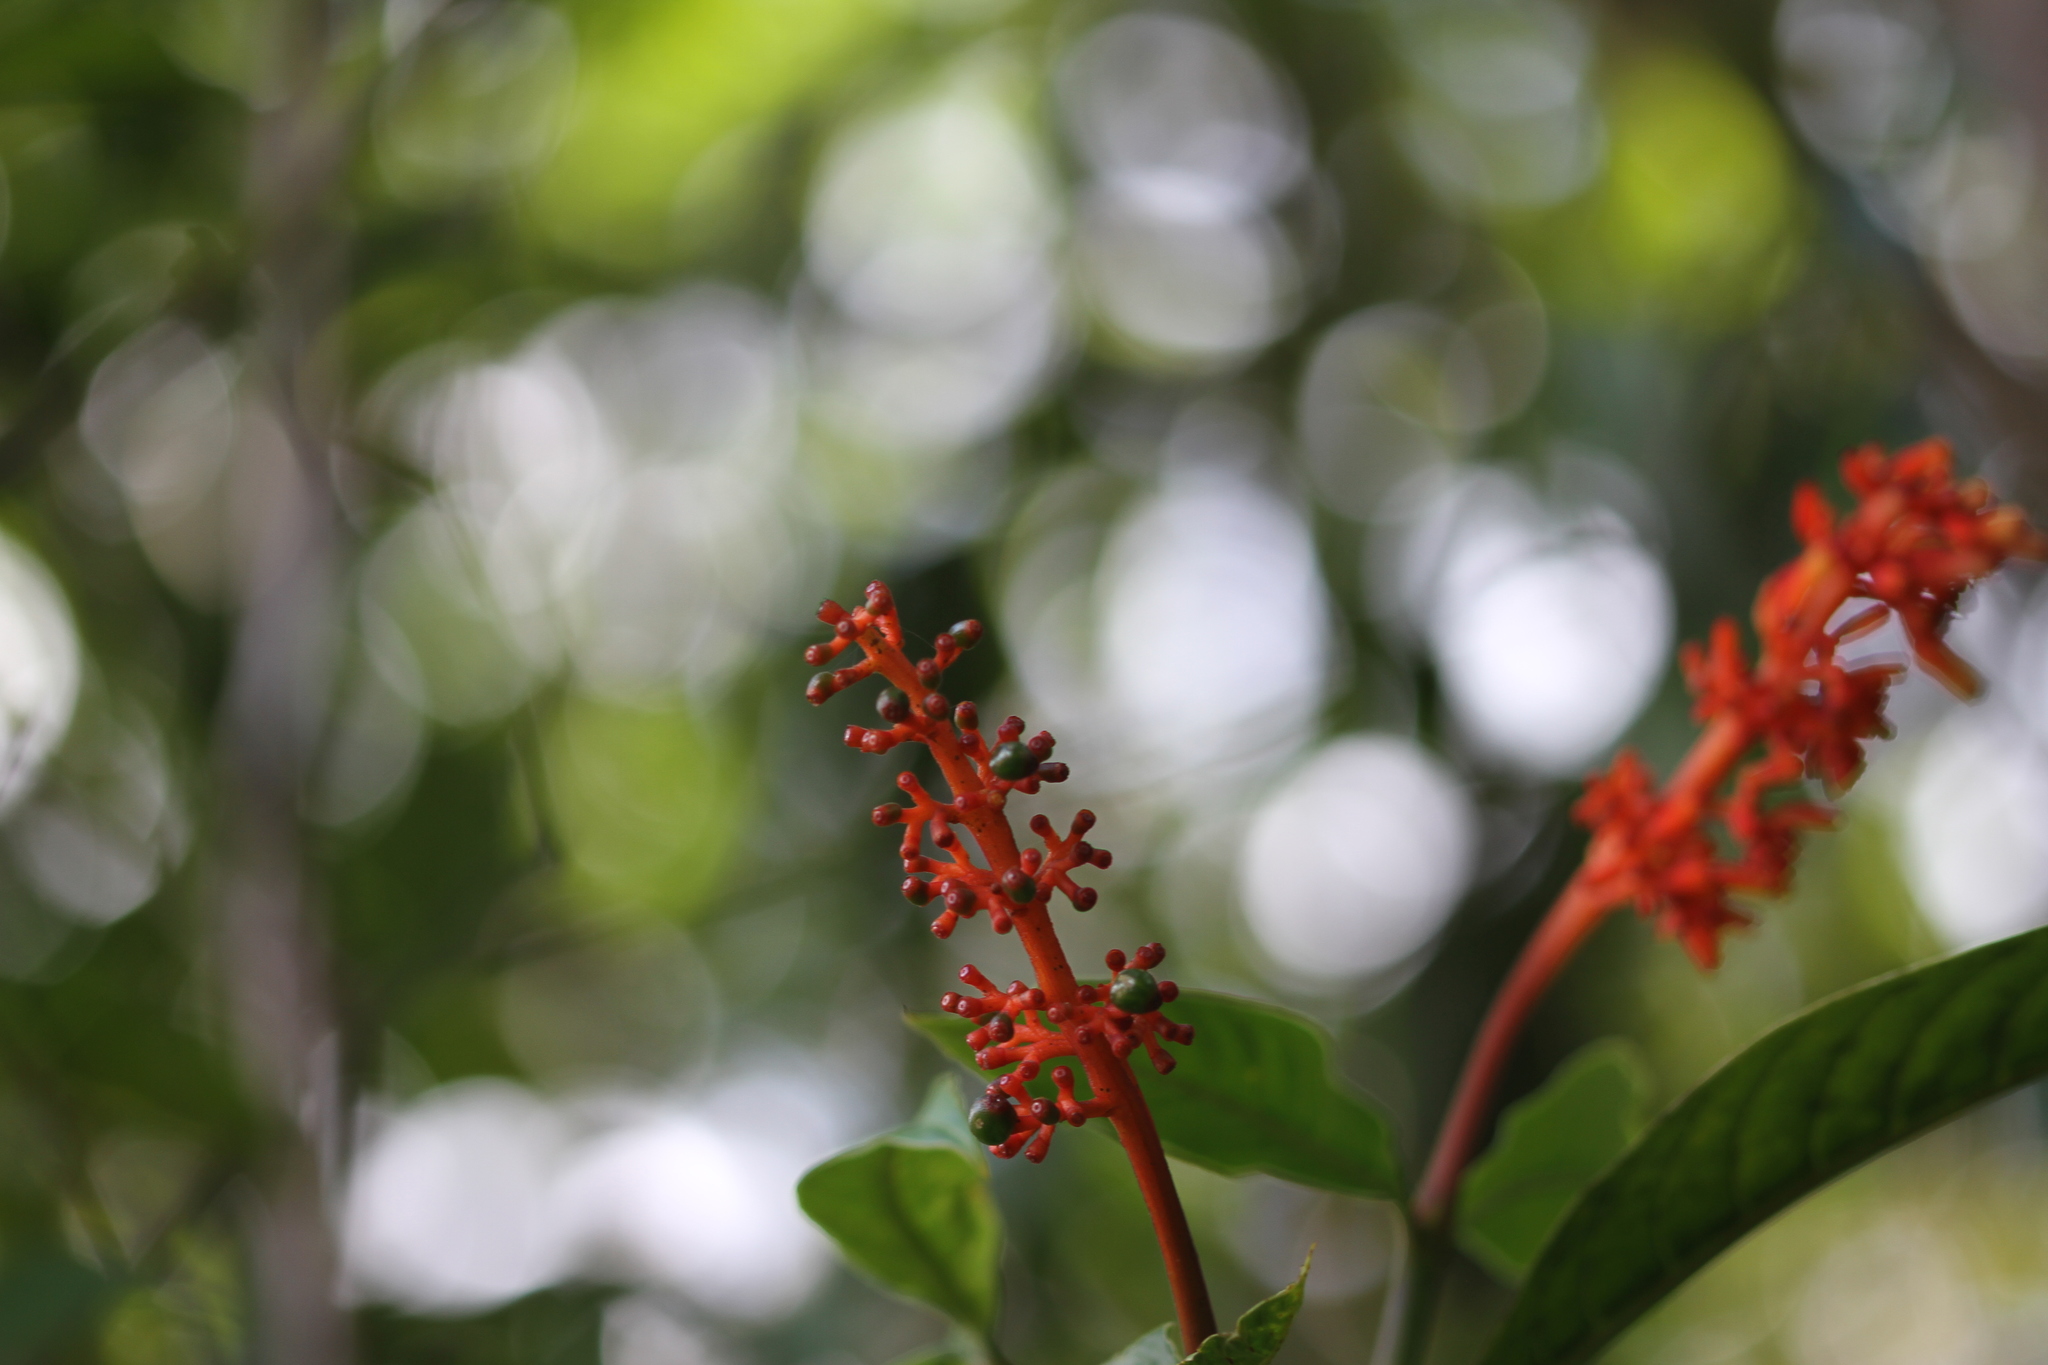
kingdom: Plantae
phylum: Tracheophyta
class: Magnoliopsida
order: Gentianales
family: Rubiaceae
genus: Palicourea
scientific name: Palicourea calophylla
